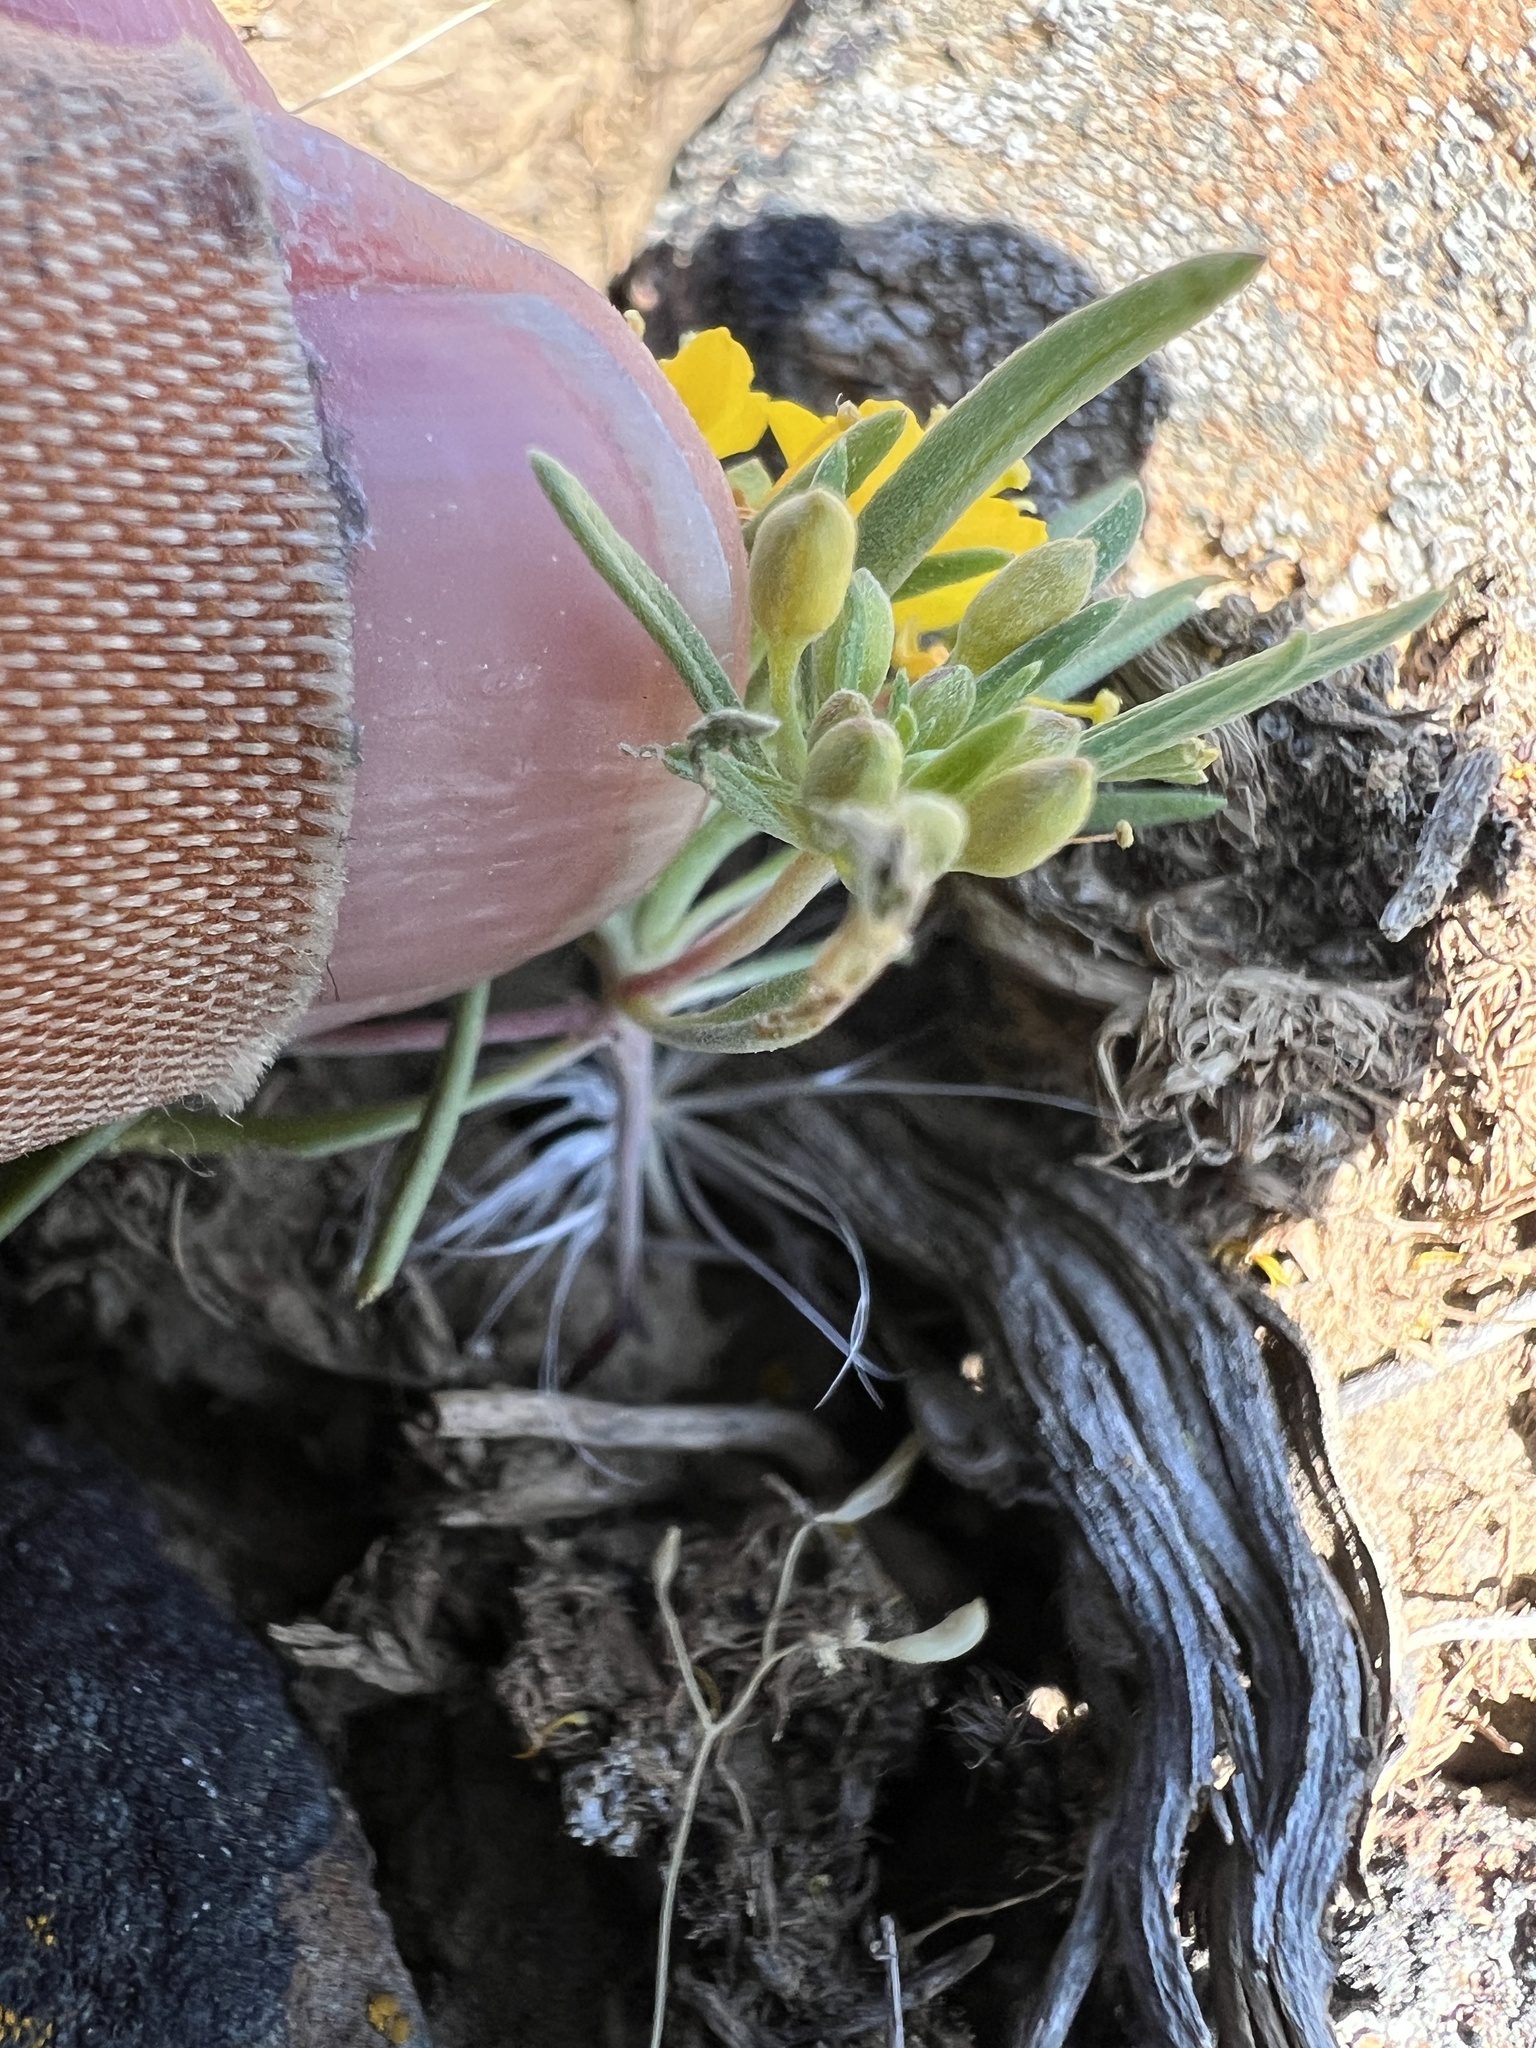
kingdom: Plantae
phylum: Tracheophyta
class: Magnoliopsida
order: Myrtales
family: Onagraceae
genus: Neoholmgrenia
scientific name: Neoholmgrenia hilgardii
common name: Hilgard's suncup
